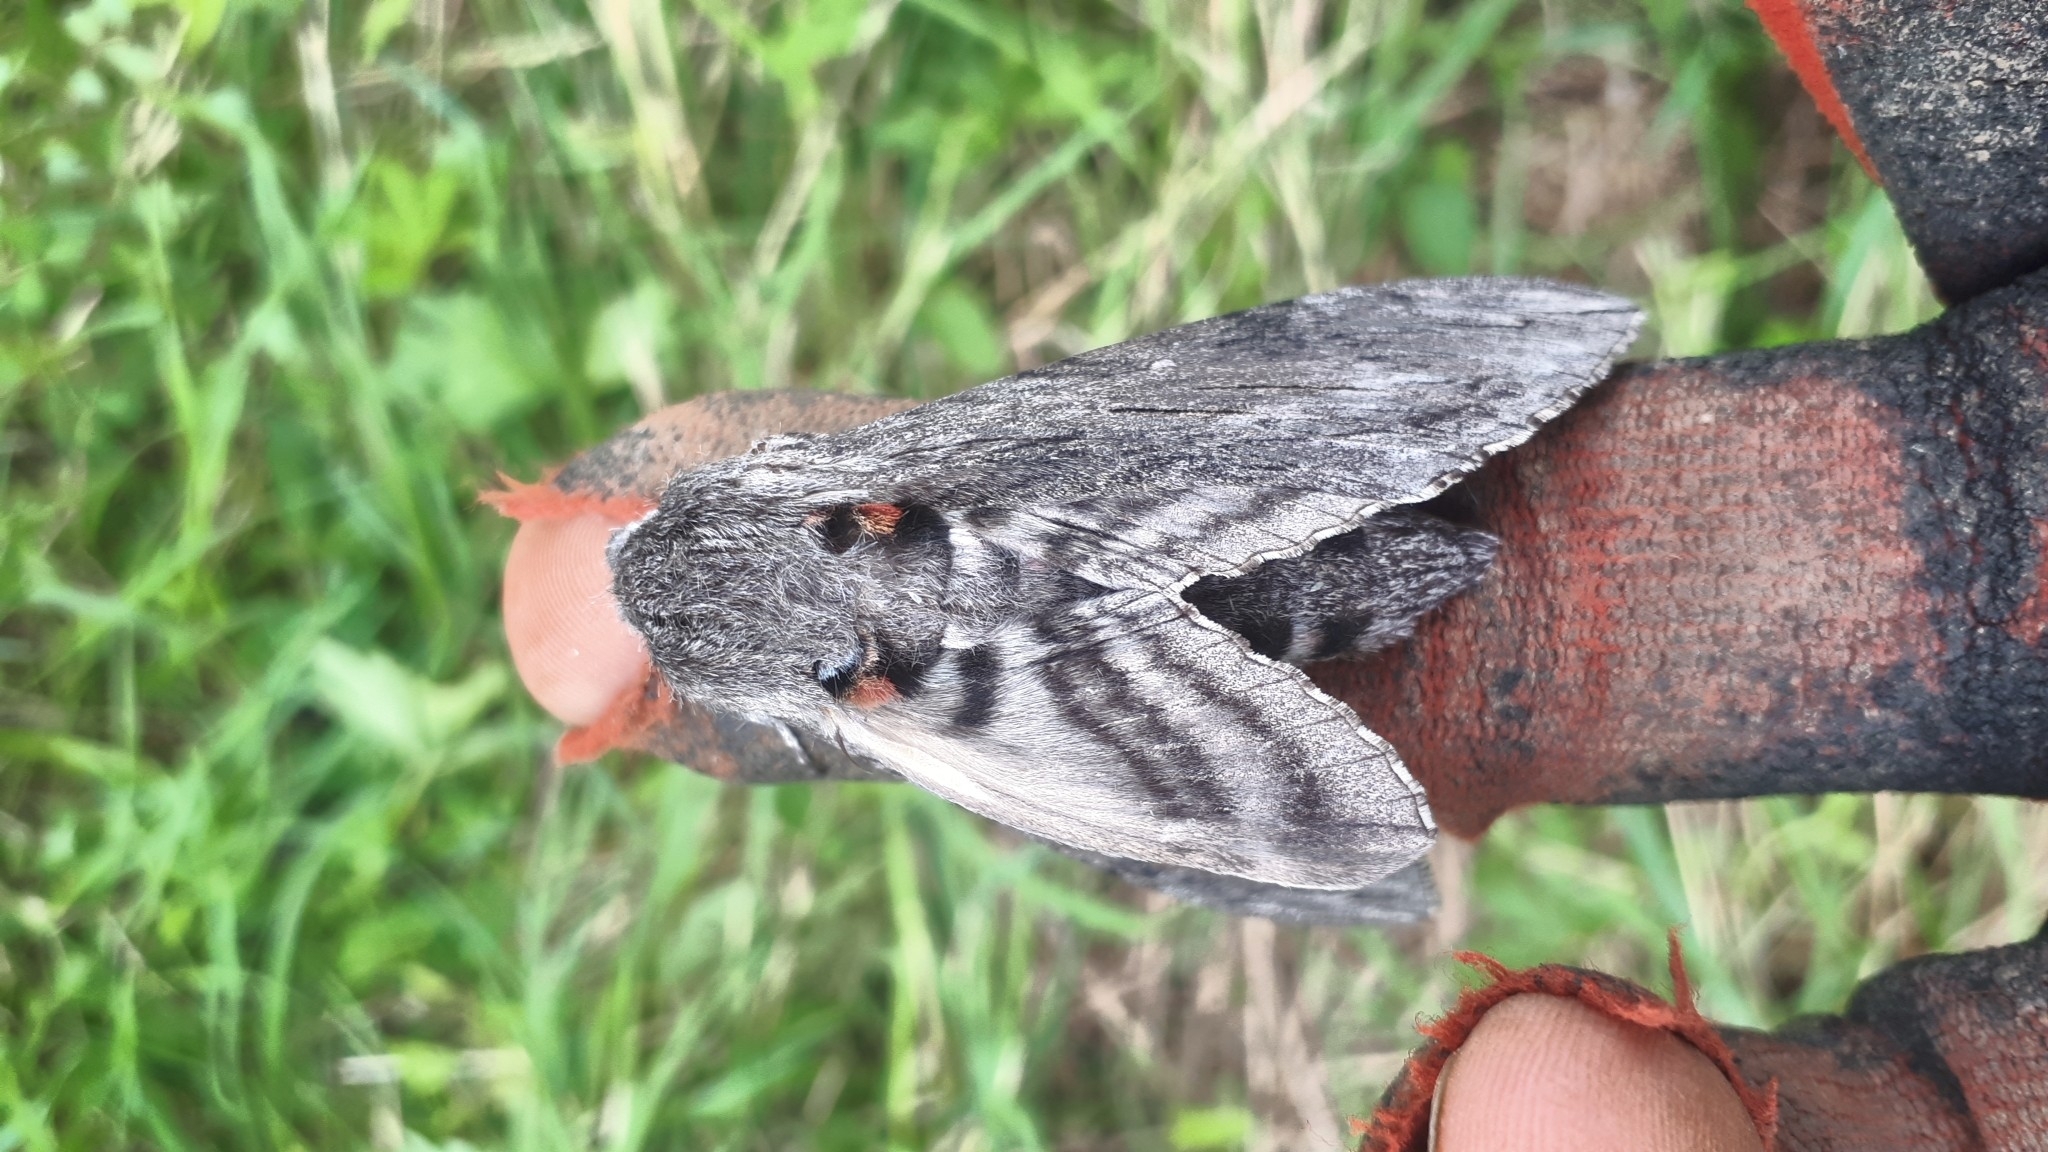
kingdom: Animalia
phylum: Arthropoda
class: Insecta
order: Lepidoptera
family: Sphingidae
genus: Agrius
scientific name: Agrius convolvuli
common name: Convolvulus hawkmoth
